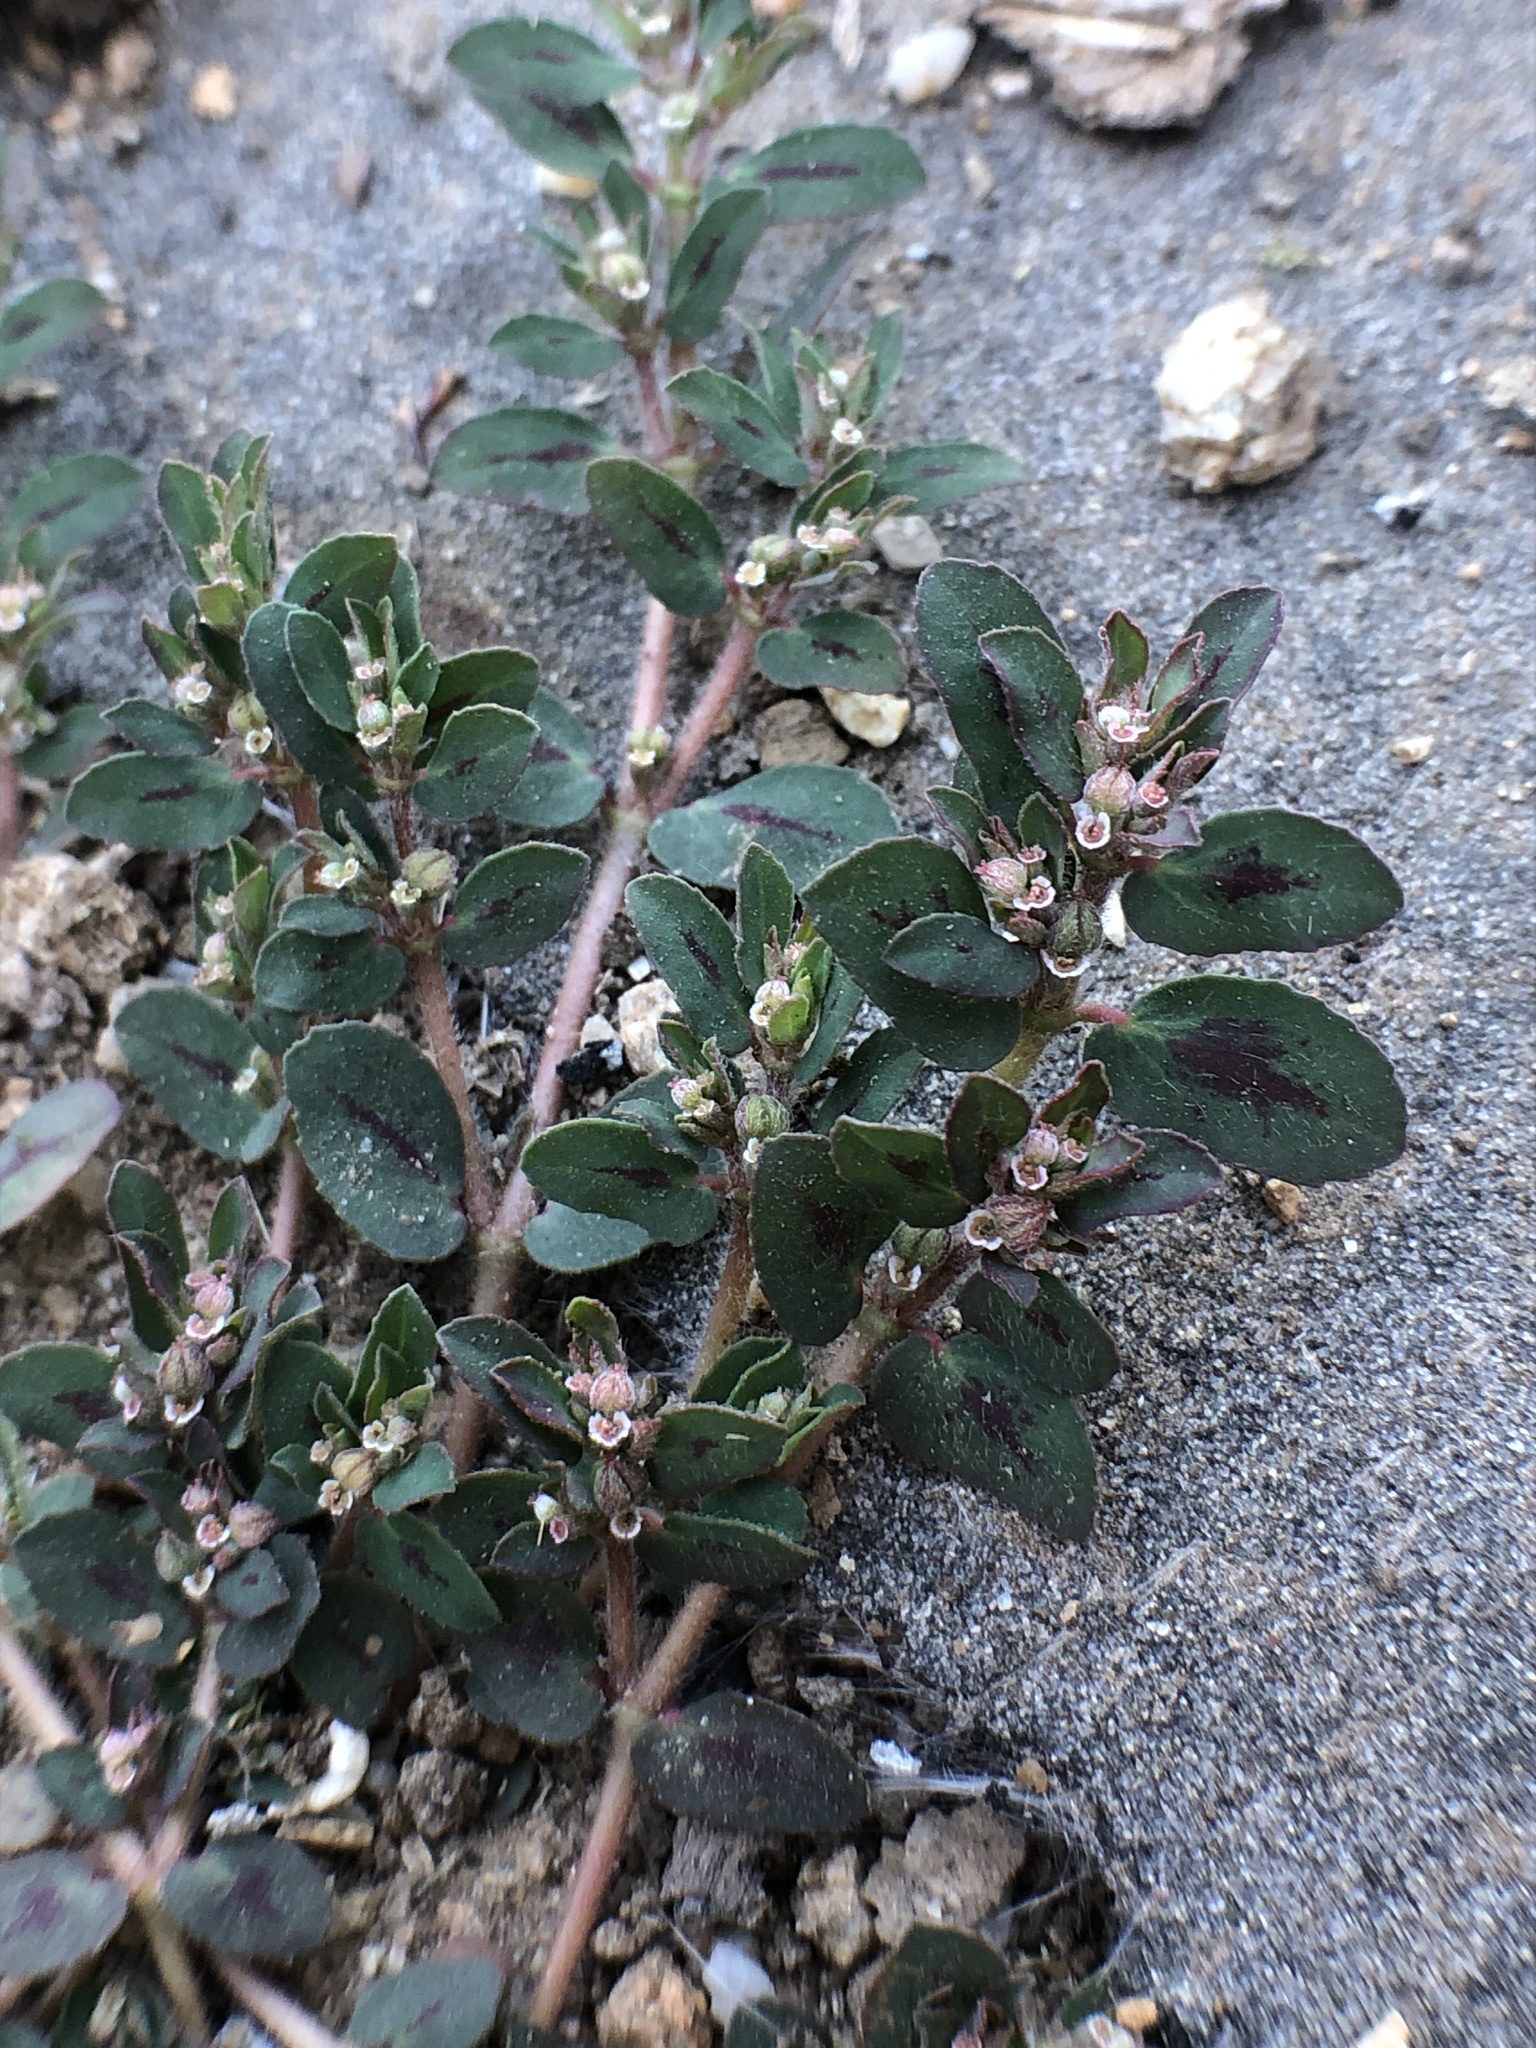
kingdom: Plantae
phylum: Tracheophyta
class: Magnoliopsida
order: Malpighiales
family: Euphorbiaceae
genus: Euphorbia
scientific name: Euphorbia maculata
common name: Spotted spurge
